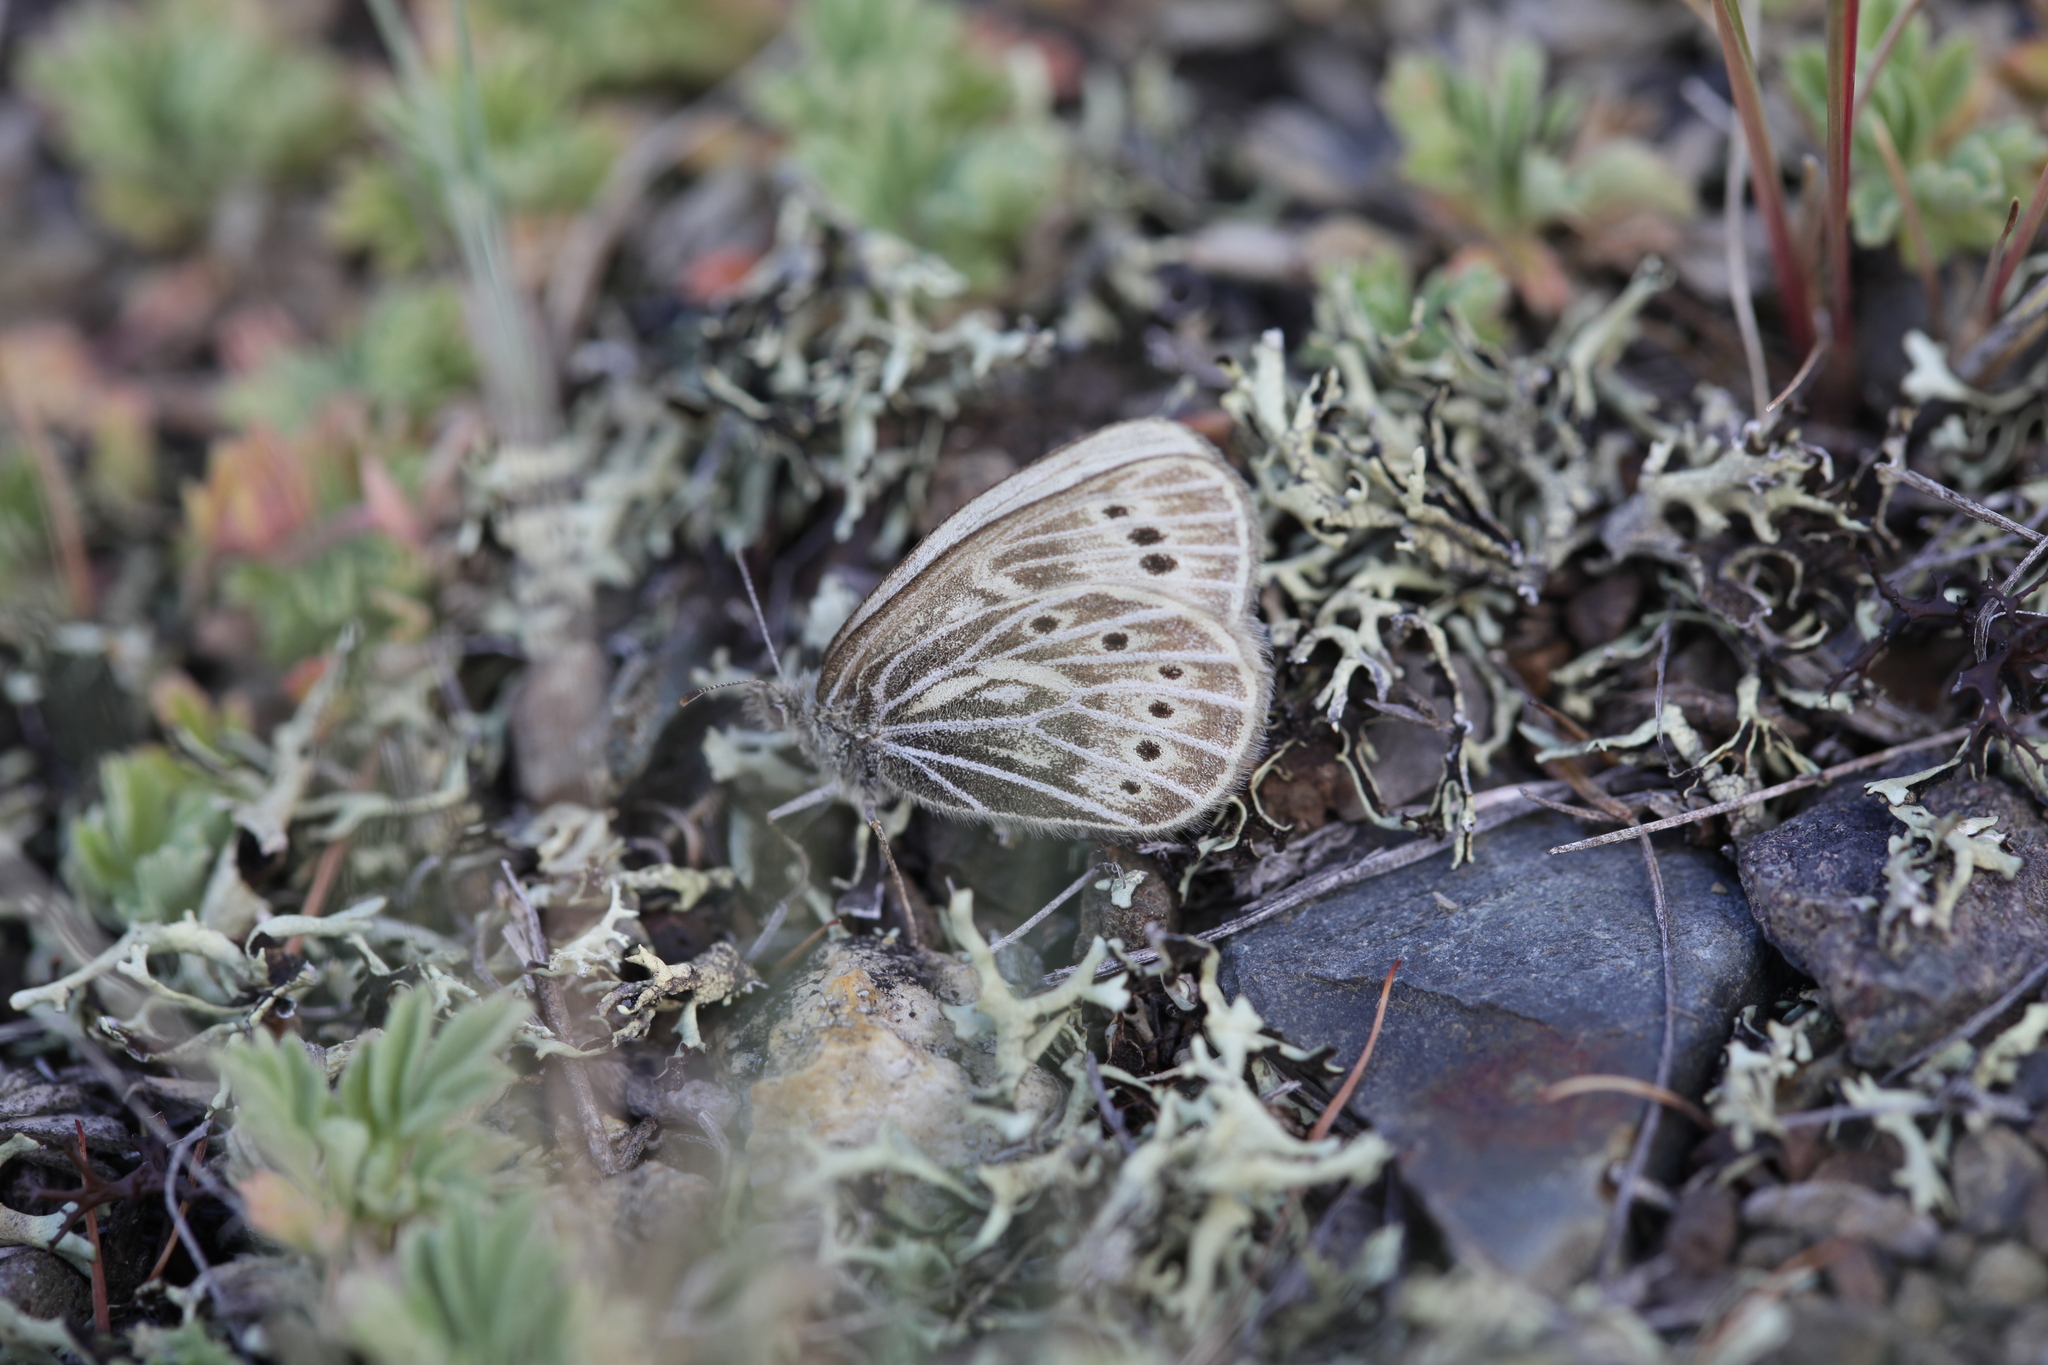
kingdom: Animalia
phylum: Arthropoda
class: Insecta
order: Lepidoptera
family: Nymphalidae
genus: Triphysa
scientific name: Triphysa phryne
